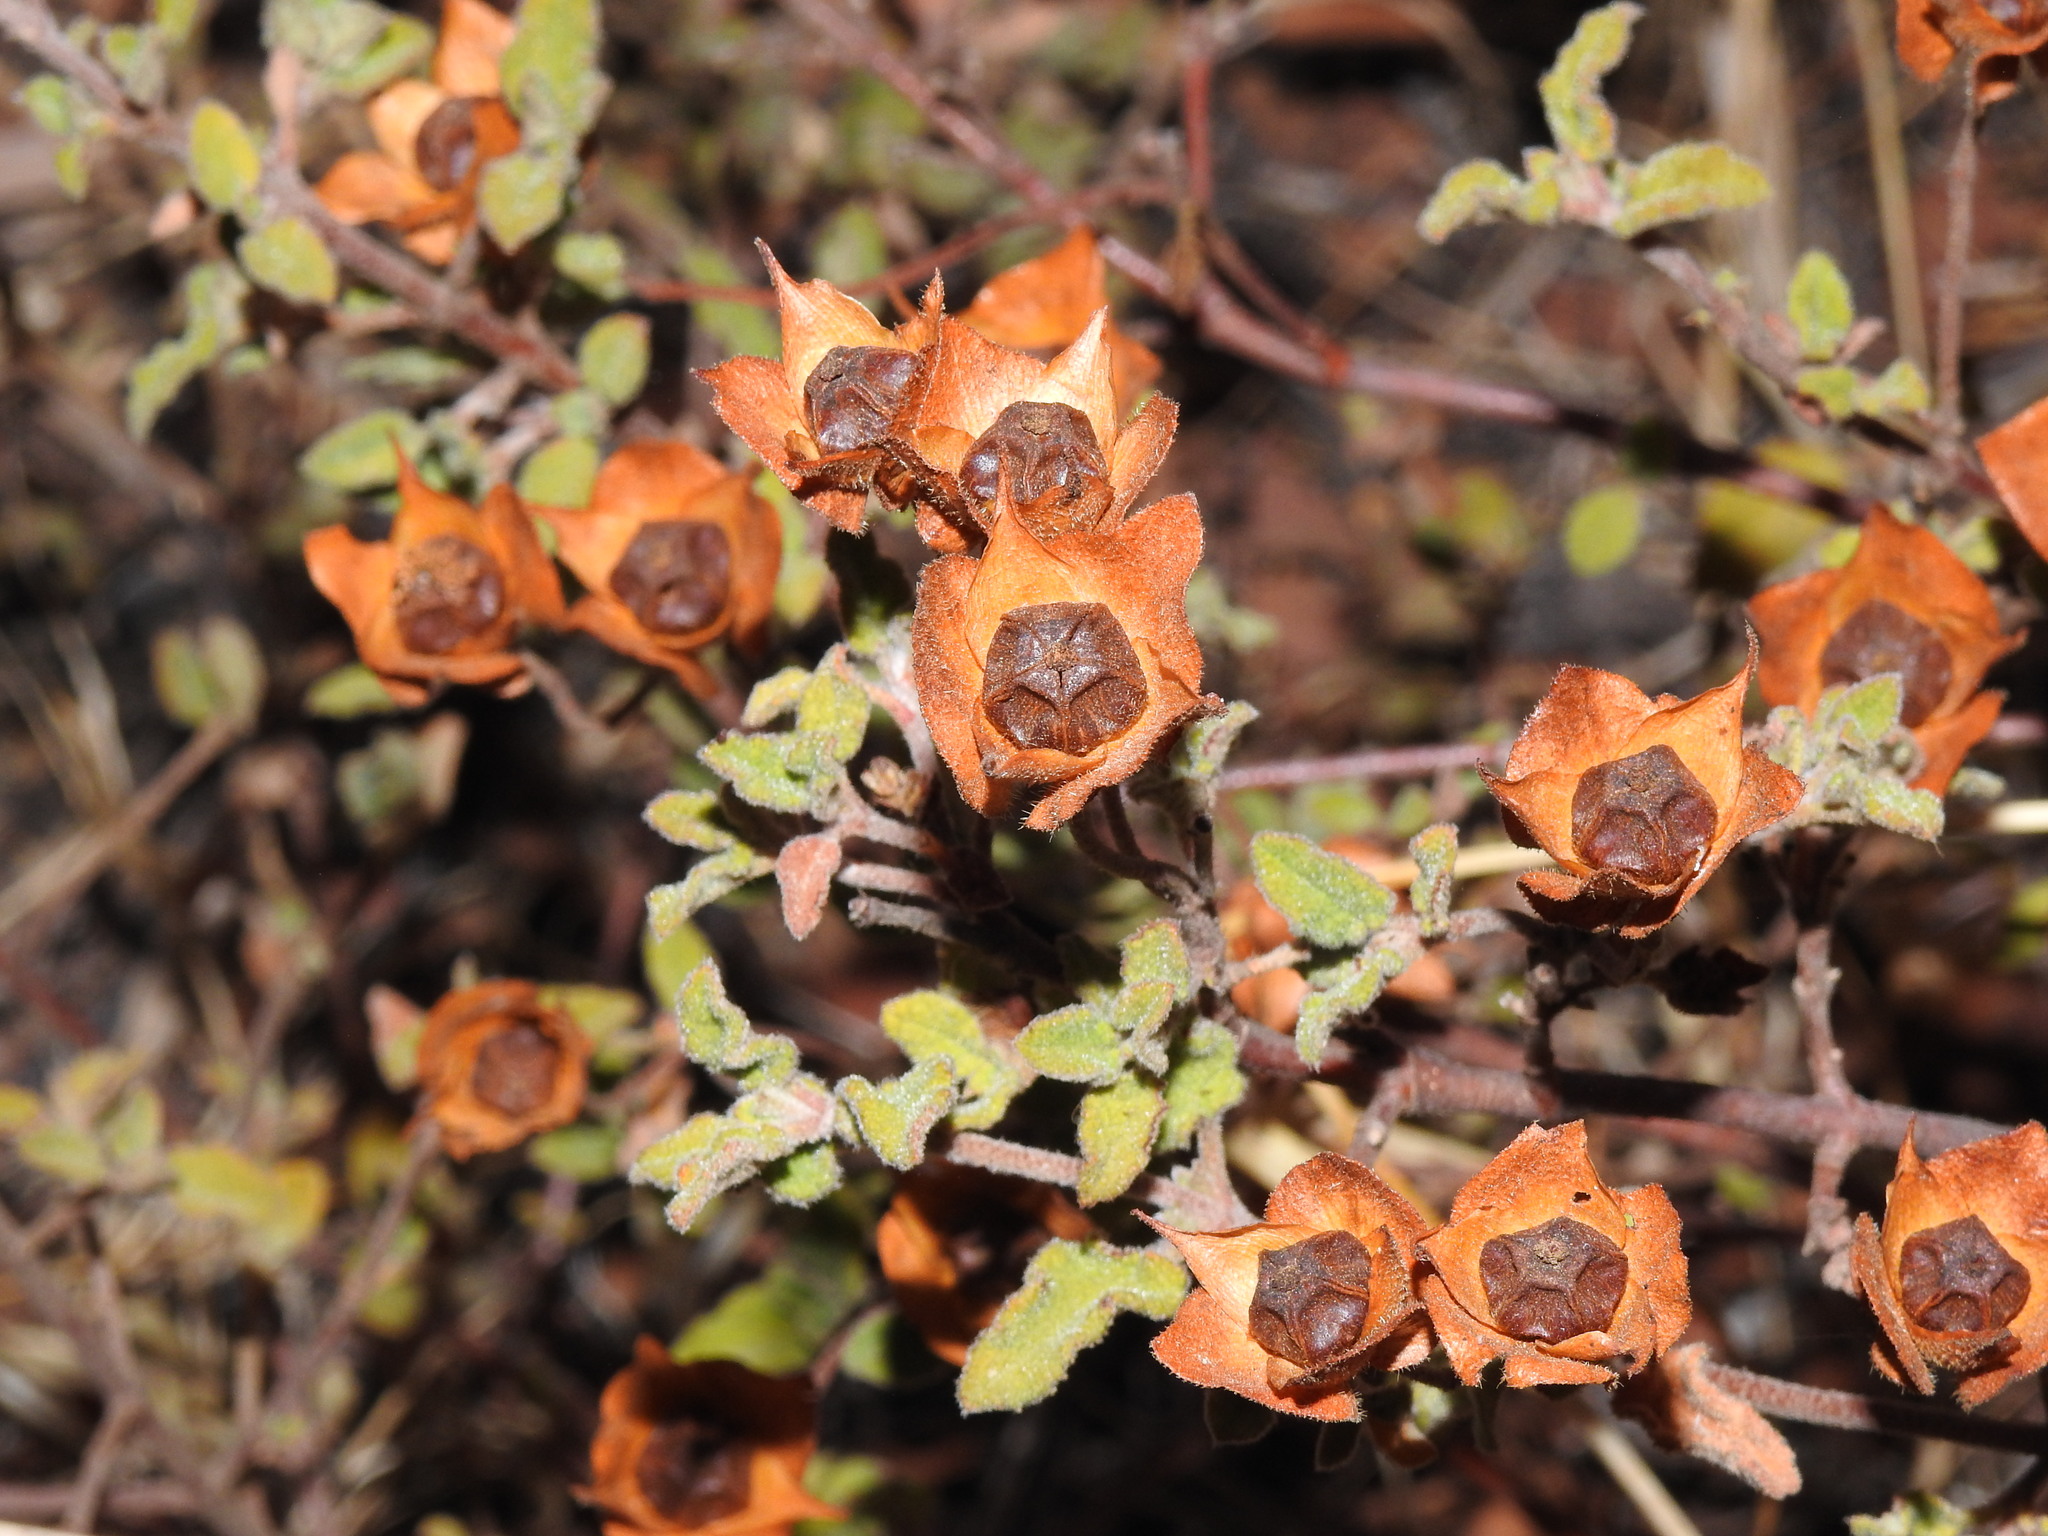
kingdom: Plantae
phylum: Tracheophyta
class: Magnoliopsida
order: Malvales
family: Cistaceae
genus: Cistus
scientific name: Cistus salviifolius
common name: Salvia cistus
